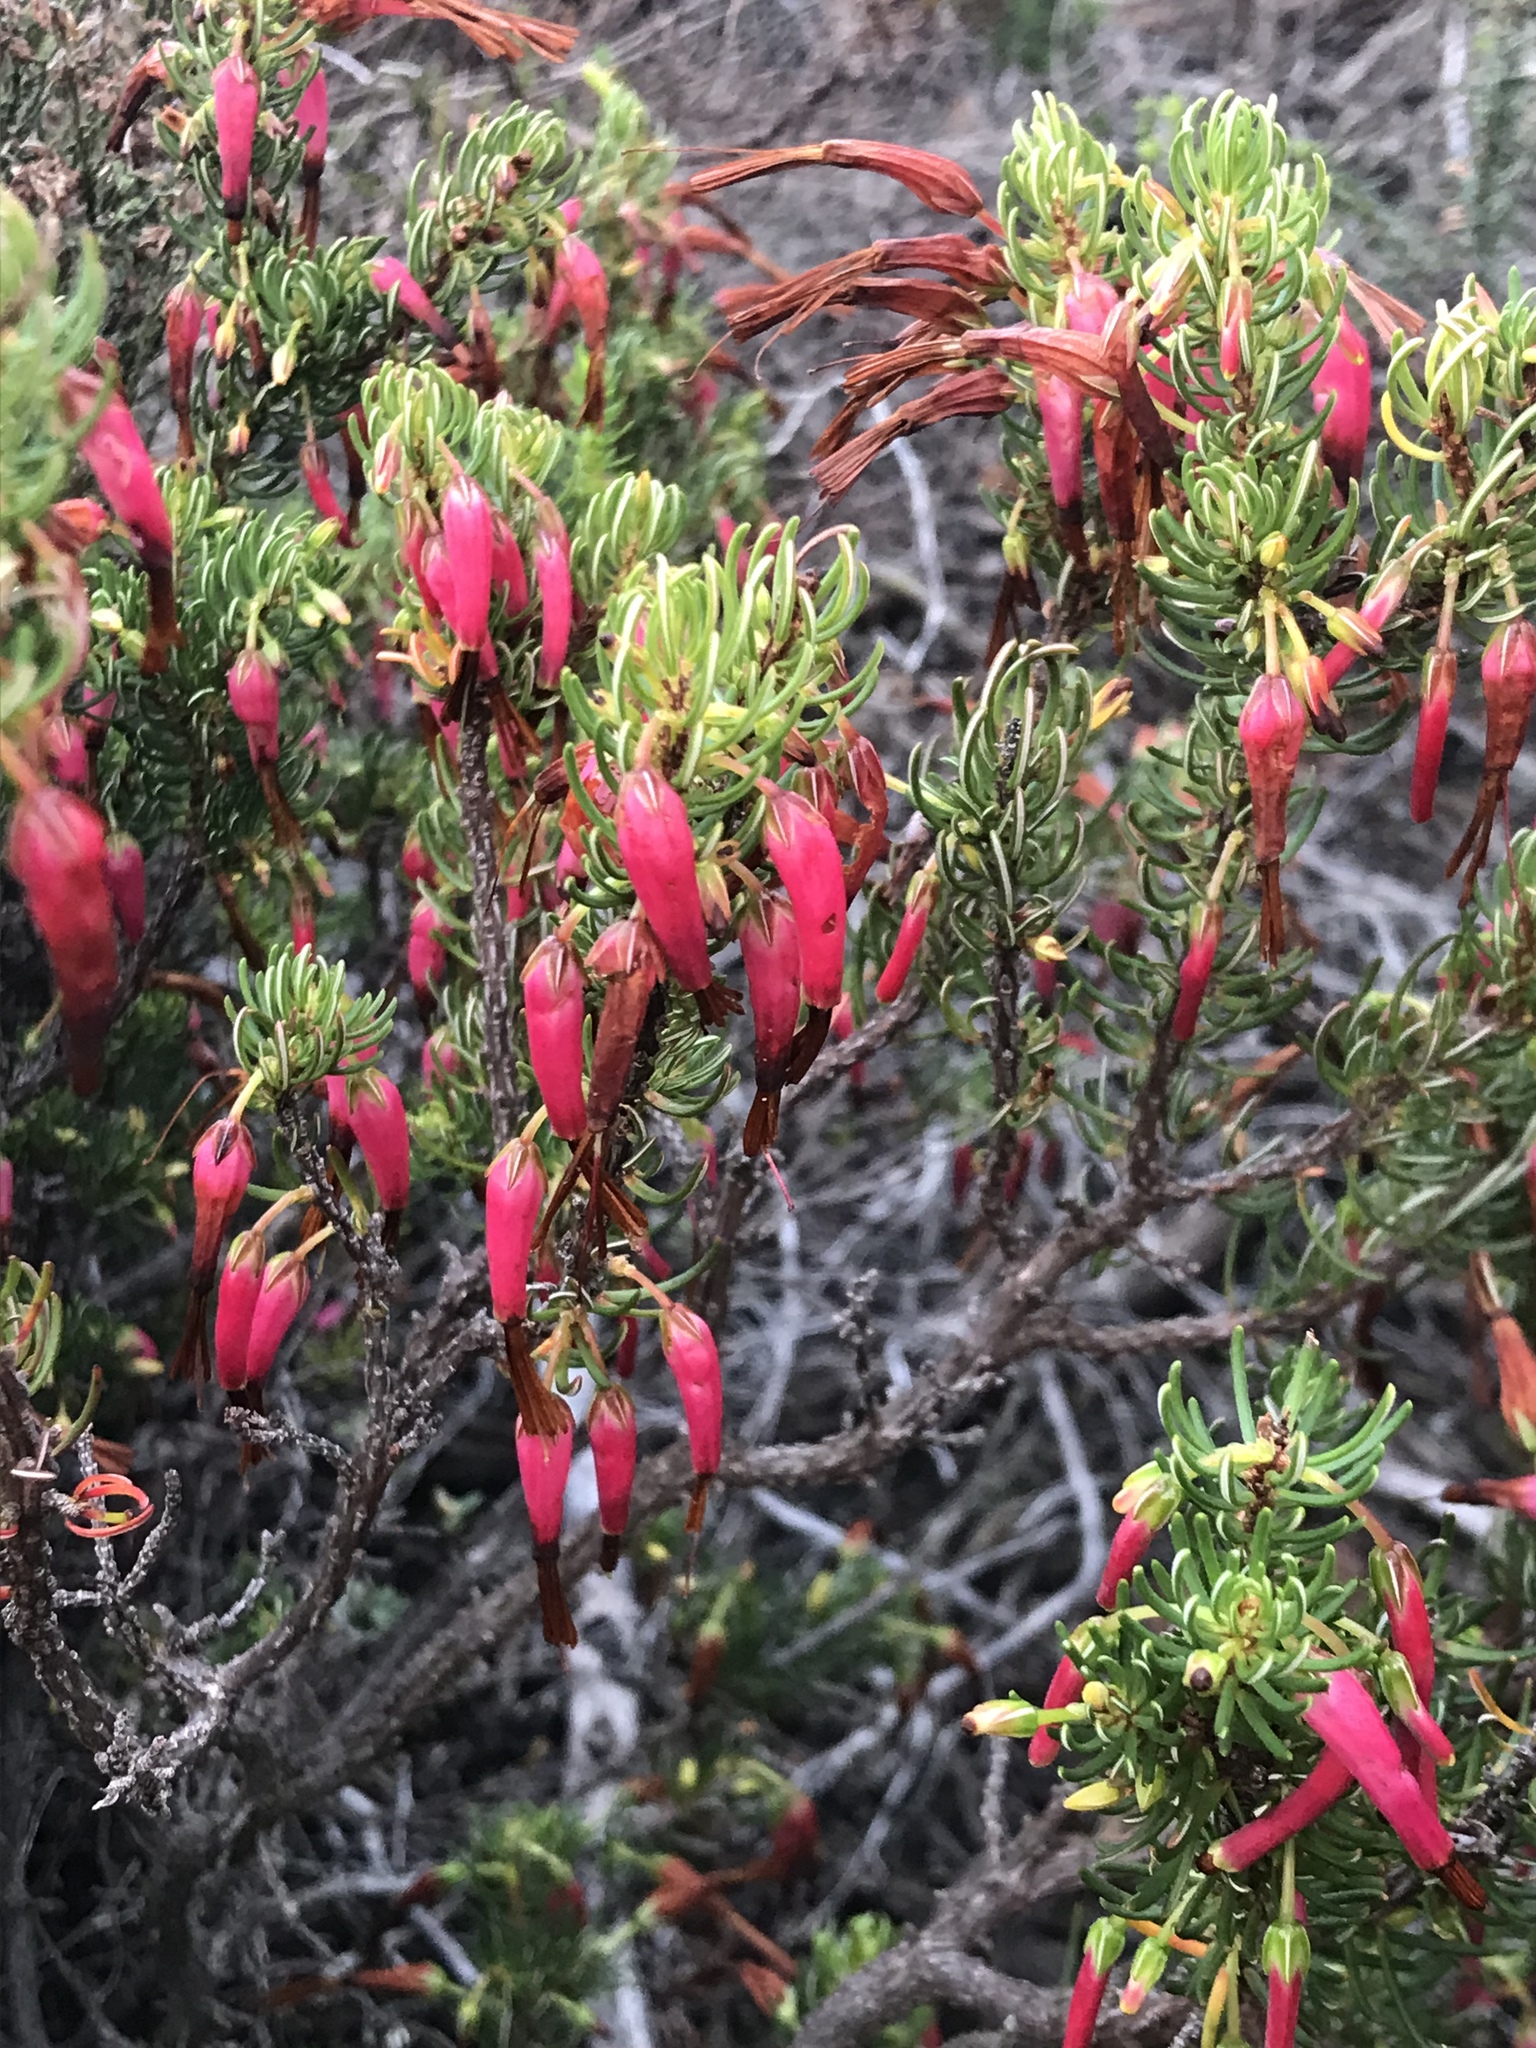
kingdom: Plantae
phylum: Tracheophyta
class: Magnoliopsida
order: Ericales
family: Ericaceae
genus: Erica
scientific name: Erica plukenetii
